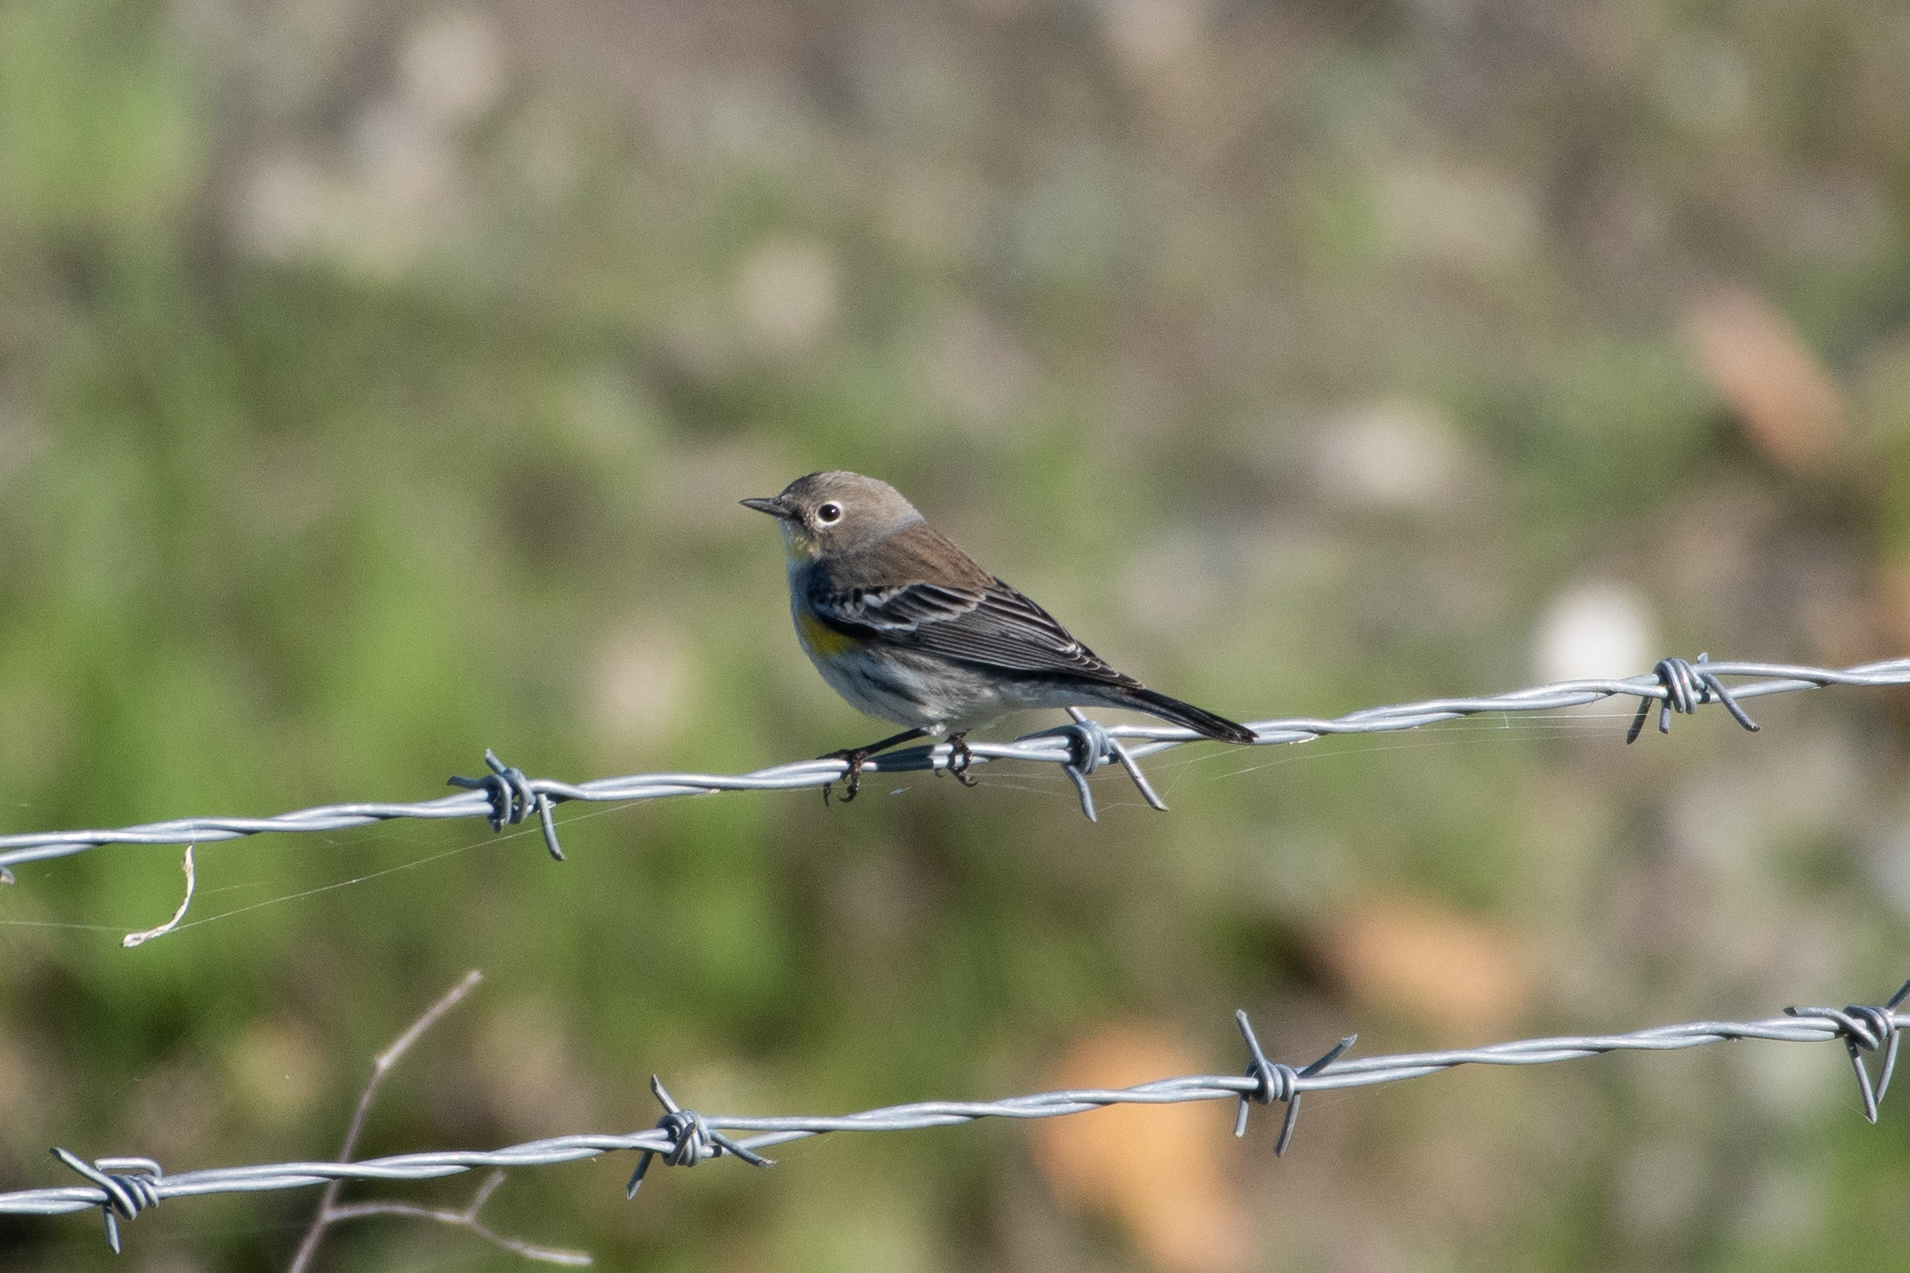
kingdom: Animalia
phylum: Chordata
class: Aves
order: Passeriformes
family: Parulidae
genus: Setophaga
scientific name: Setophaga coronata
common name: Myrtle warbler
